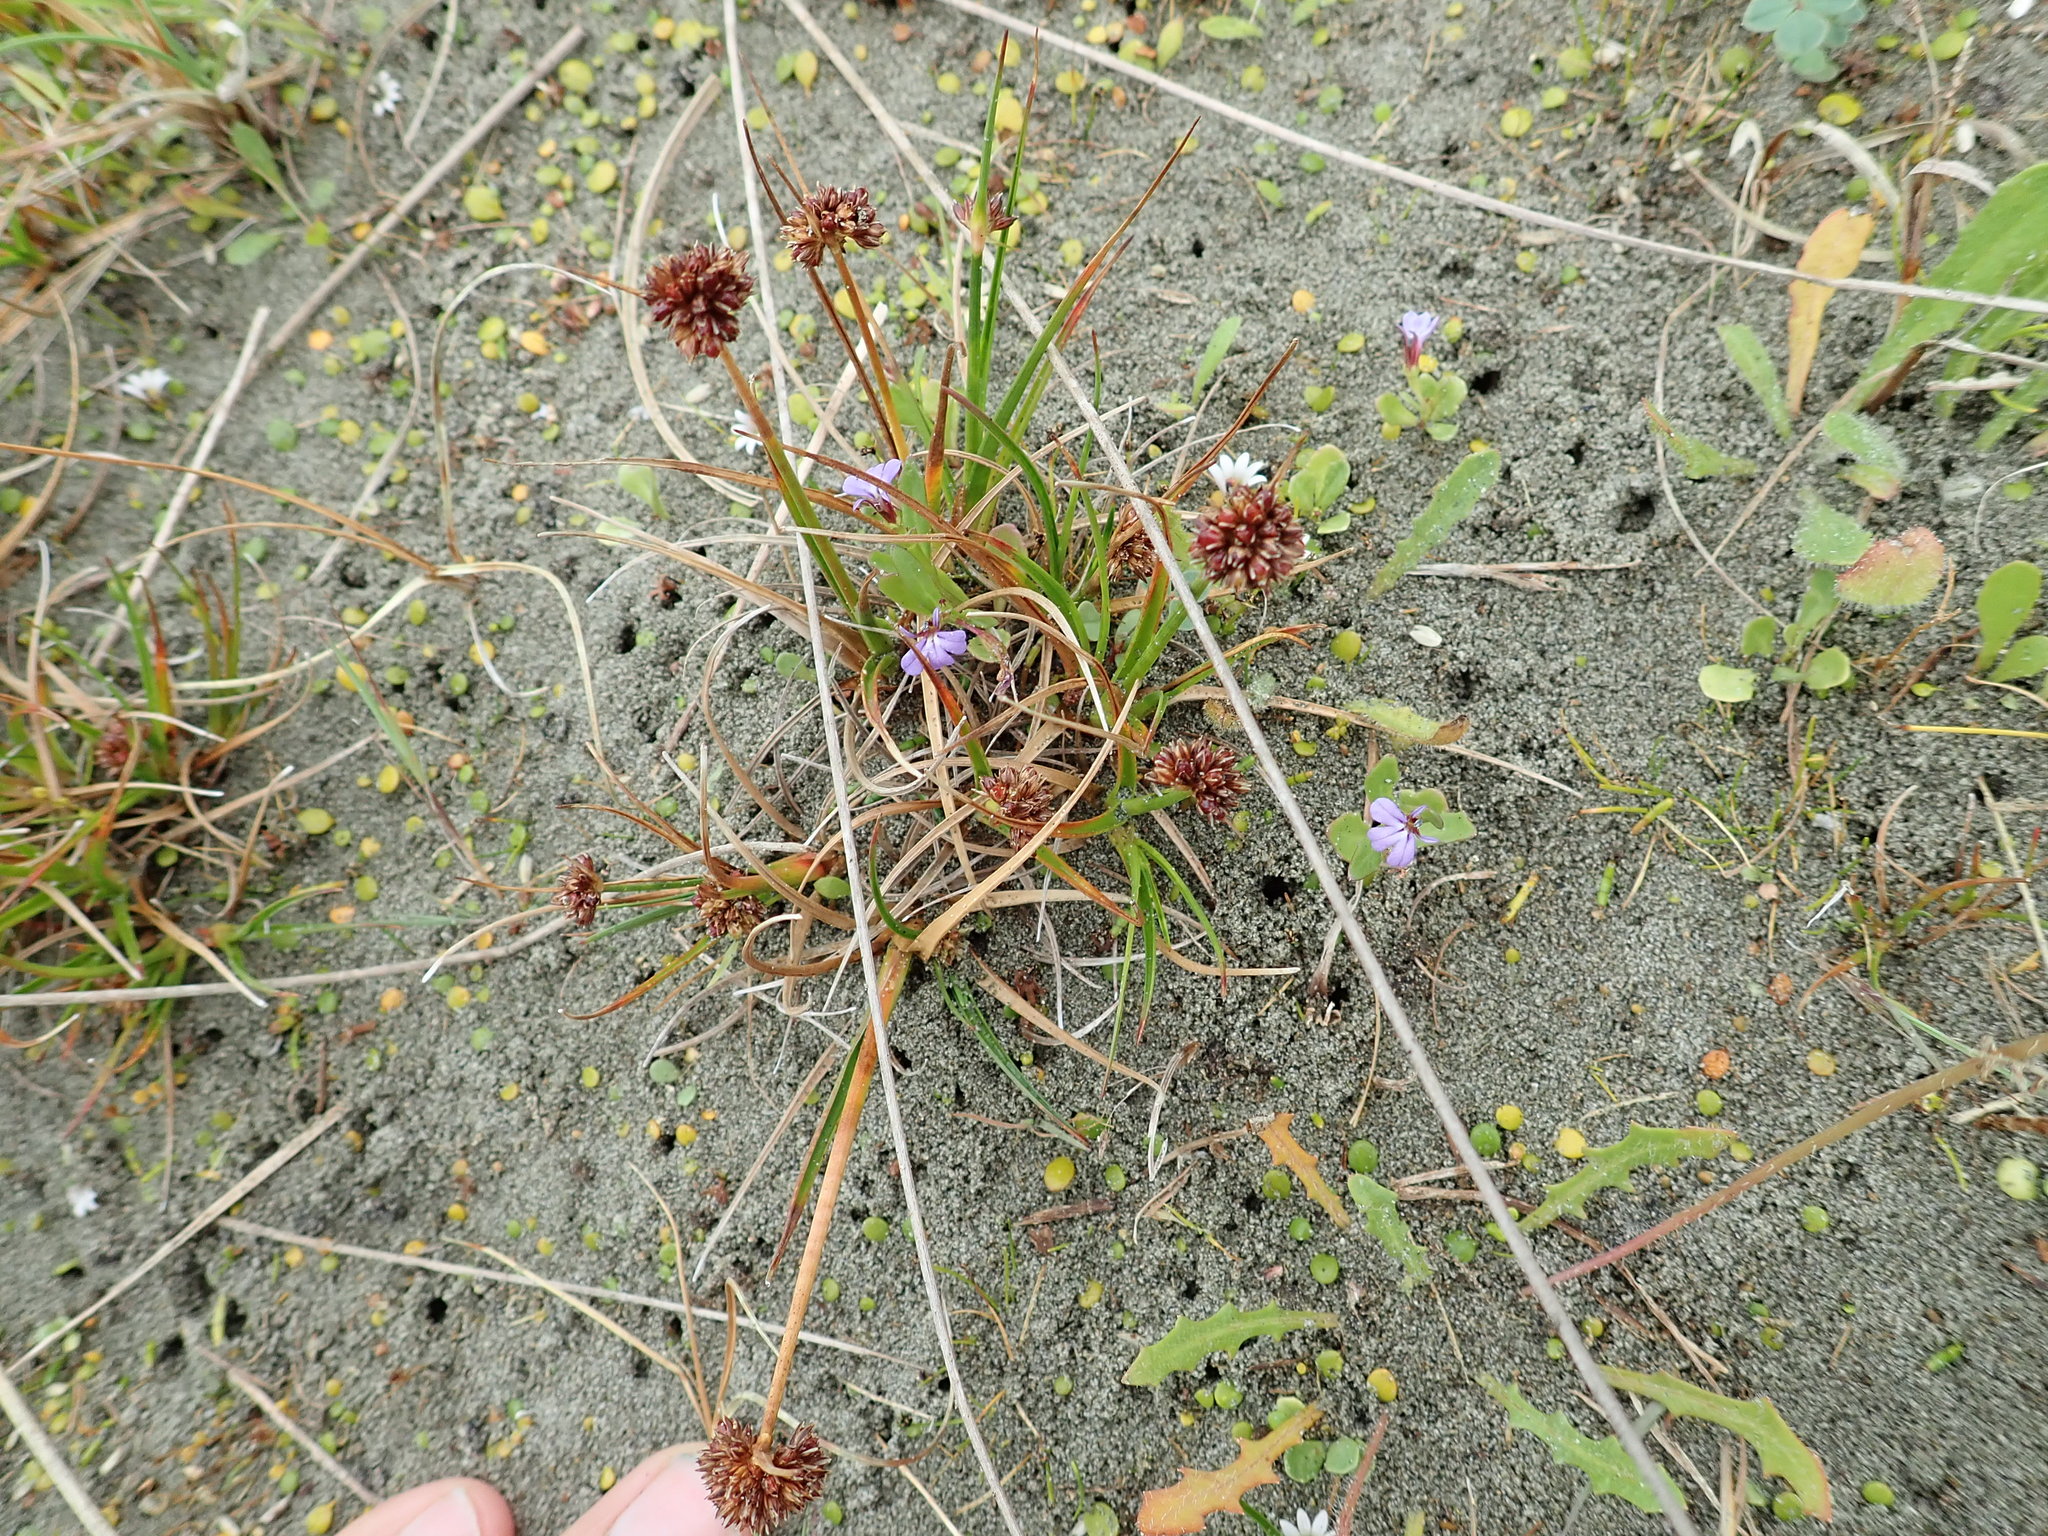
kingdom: Plantae
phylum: Tracheophyta
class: Magnoliopsida
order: Asterales
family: Campanulaceae
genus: Lobelia
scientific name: Lobelia anceps
